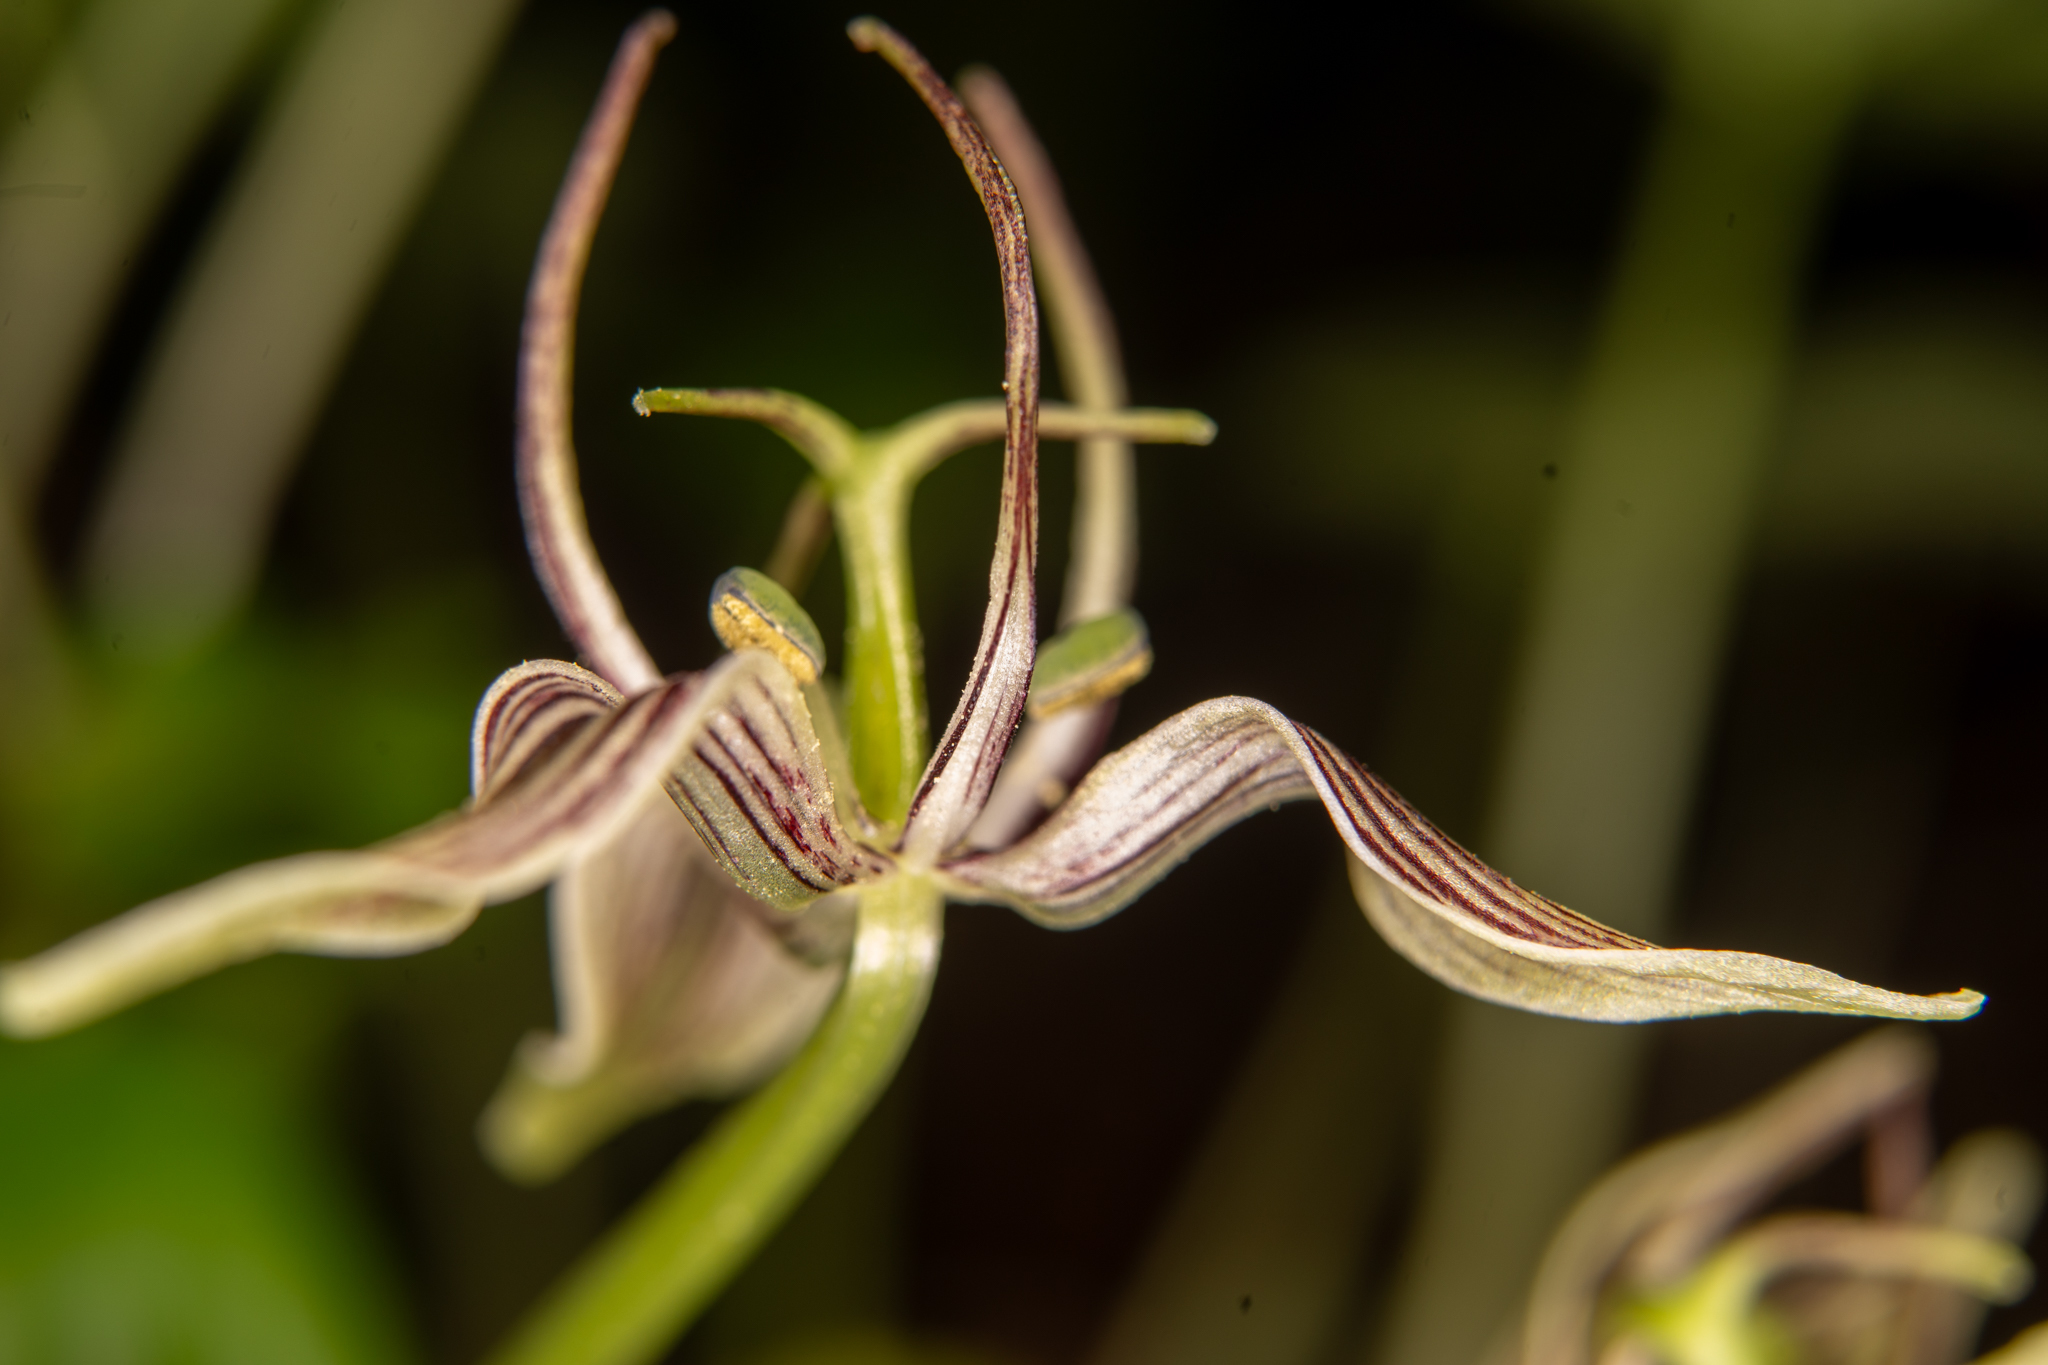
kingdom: Plantae
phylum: Tracheophyta
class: Liliopsida
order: Liliales
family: Liliaceae
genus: Scoliopus
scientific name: Scoliopus bigelovii
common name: Foetid adder's-tongue
